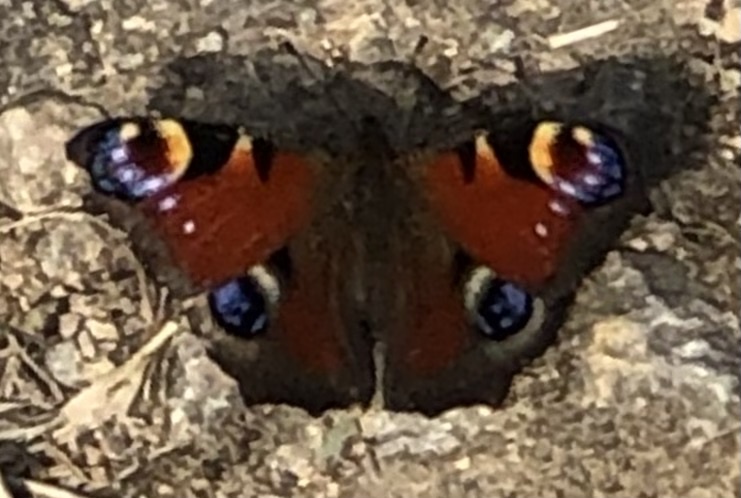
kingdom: Animalia
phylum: Arthropoda
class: Insecta
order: Lepidoptera
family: Nymphalidae
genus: Aglais
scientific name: Aglais io
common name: Peacock
